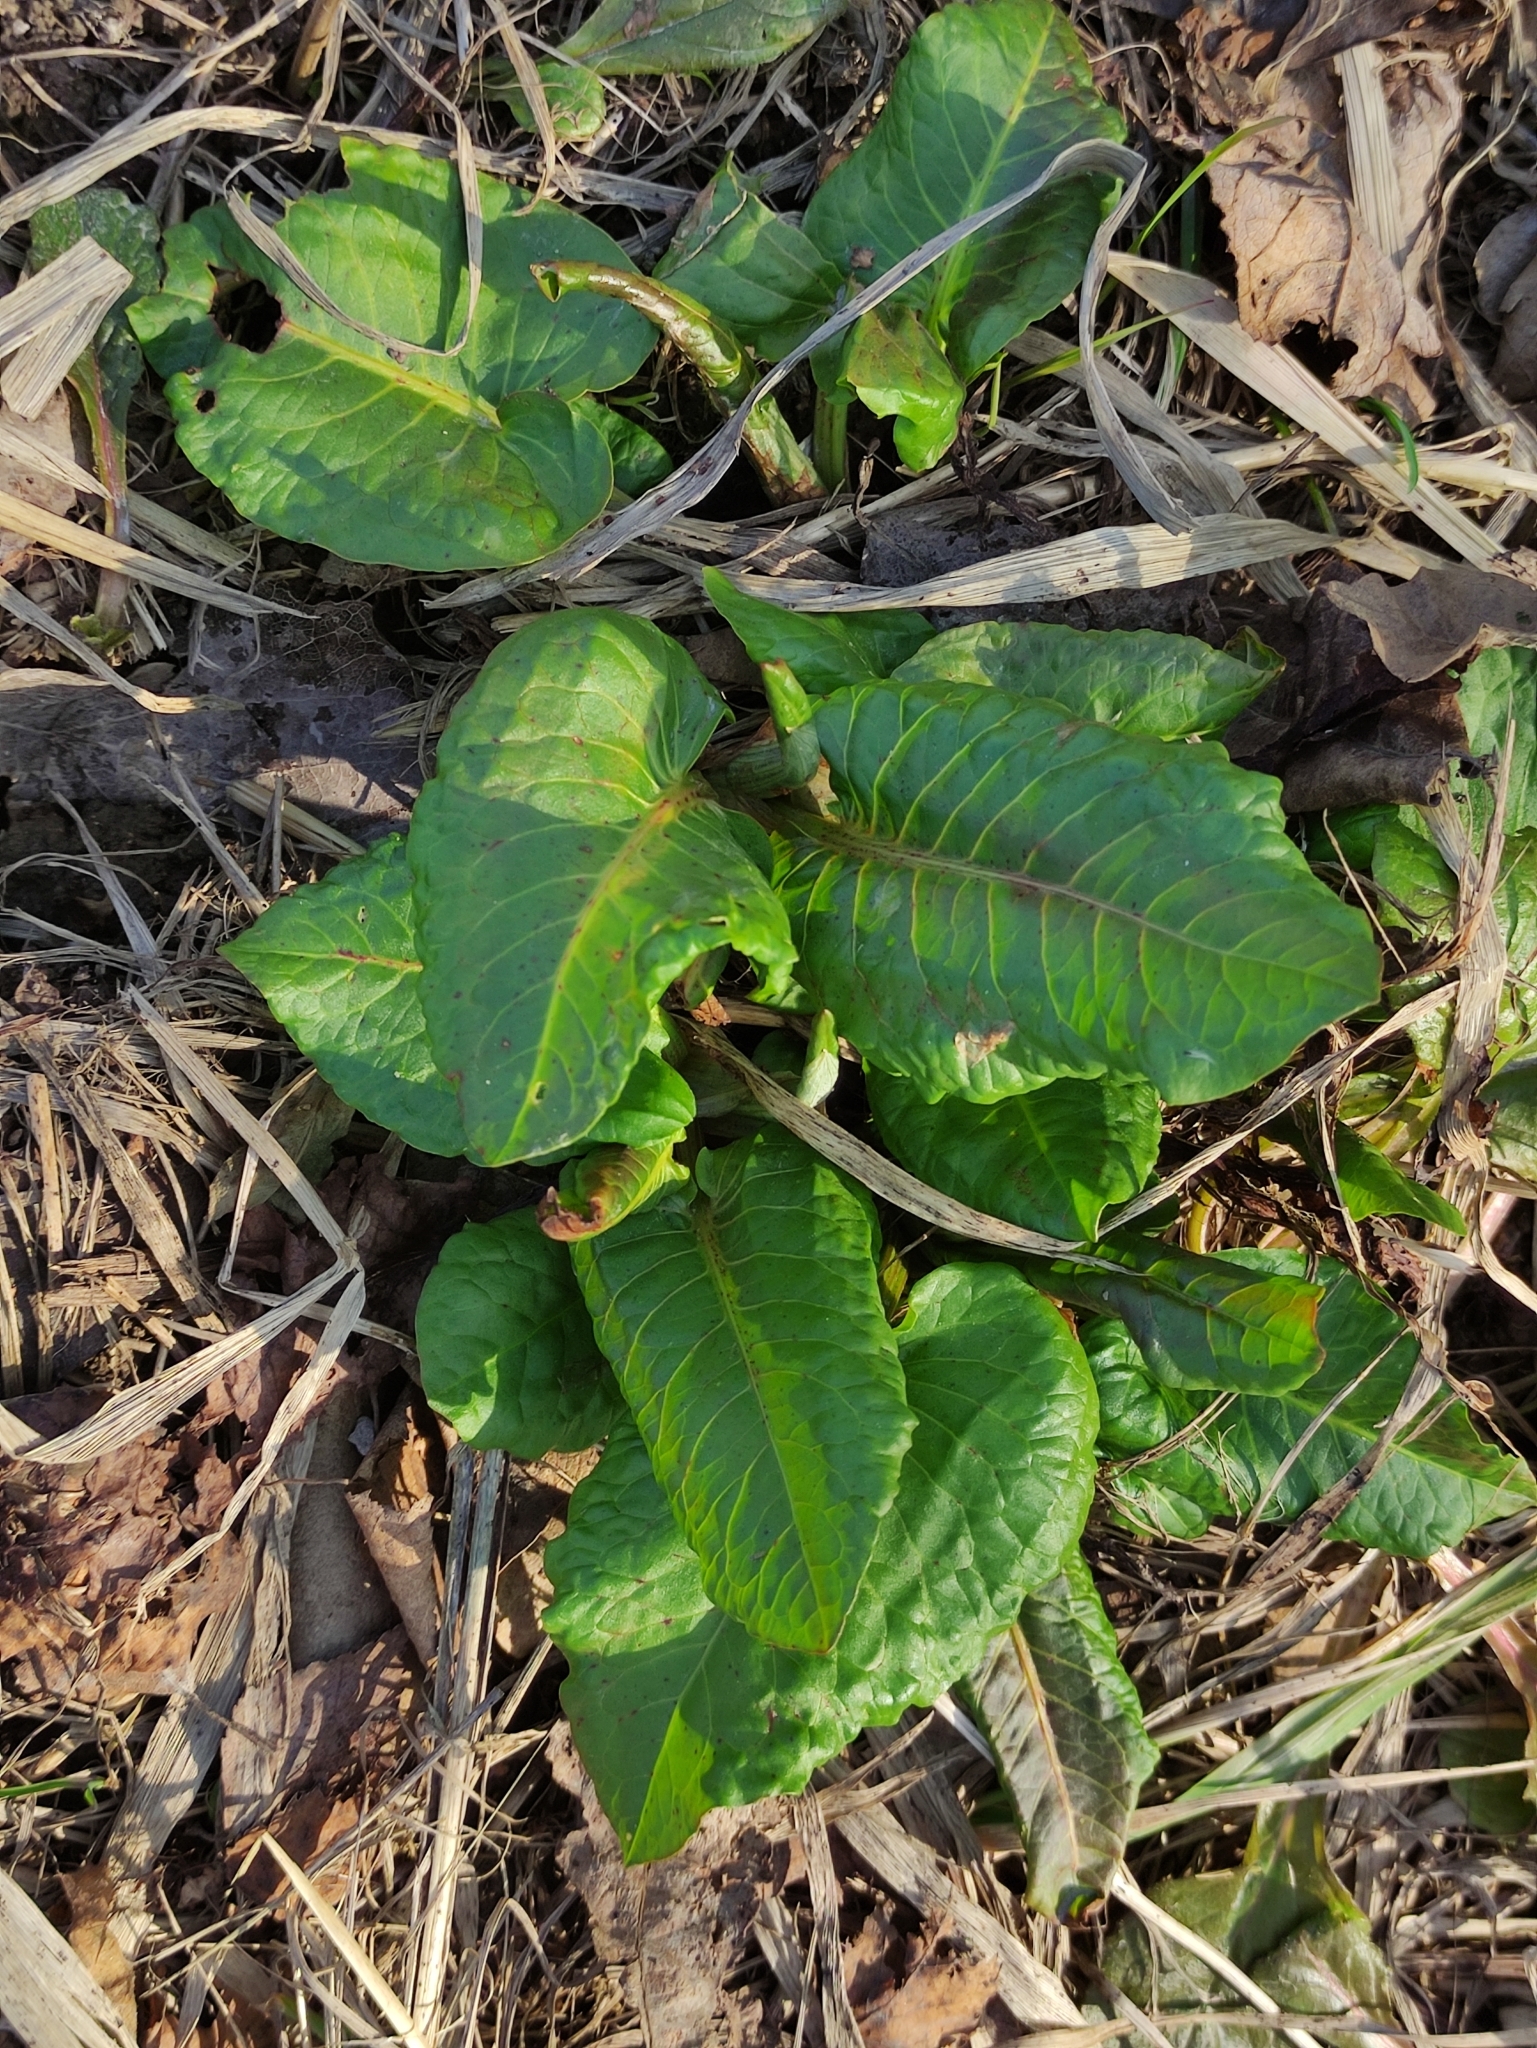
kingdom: Plantae
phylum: Tracheophyta
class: Magnoliopsida
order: Caryophyllales
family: Polygonaceae
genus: Rumex
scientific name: Rumex obtusifolius
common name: Bitter dock
